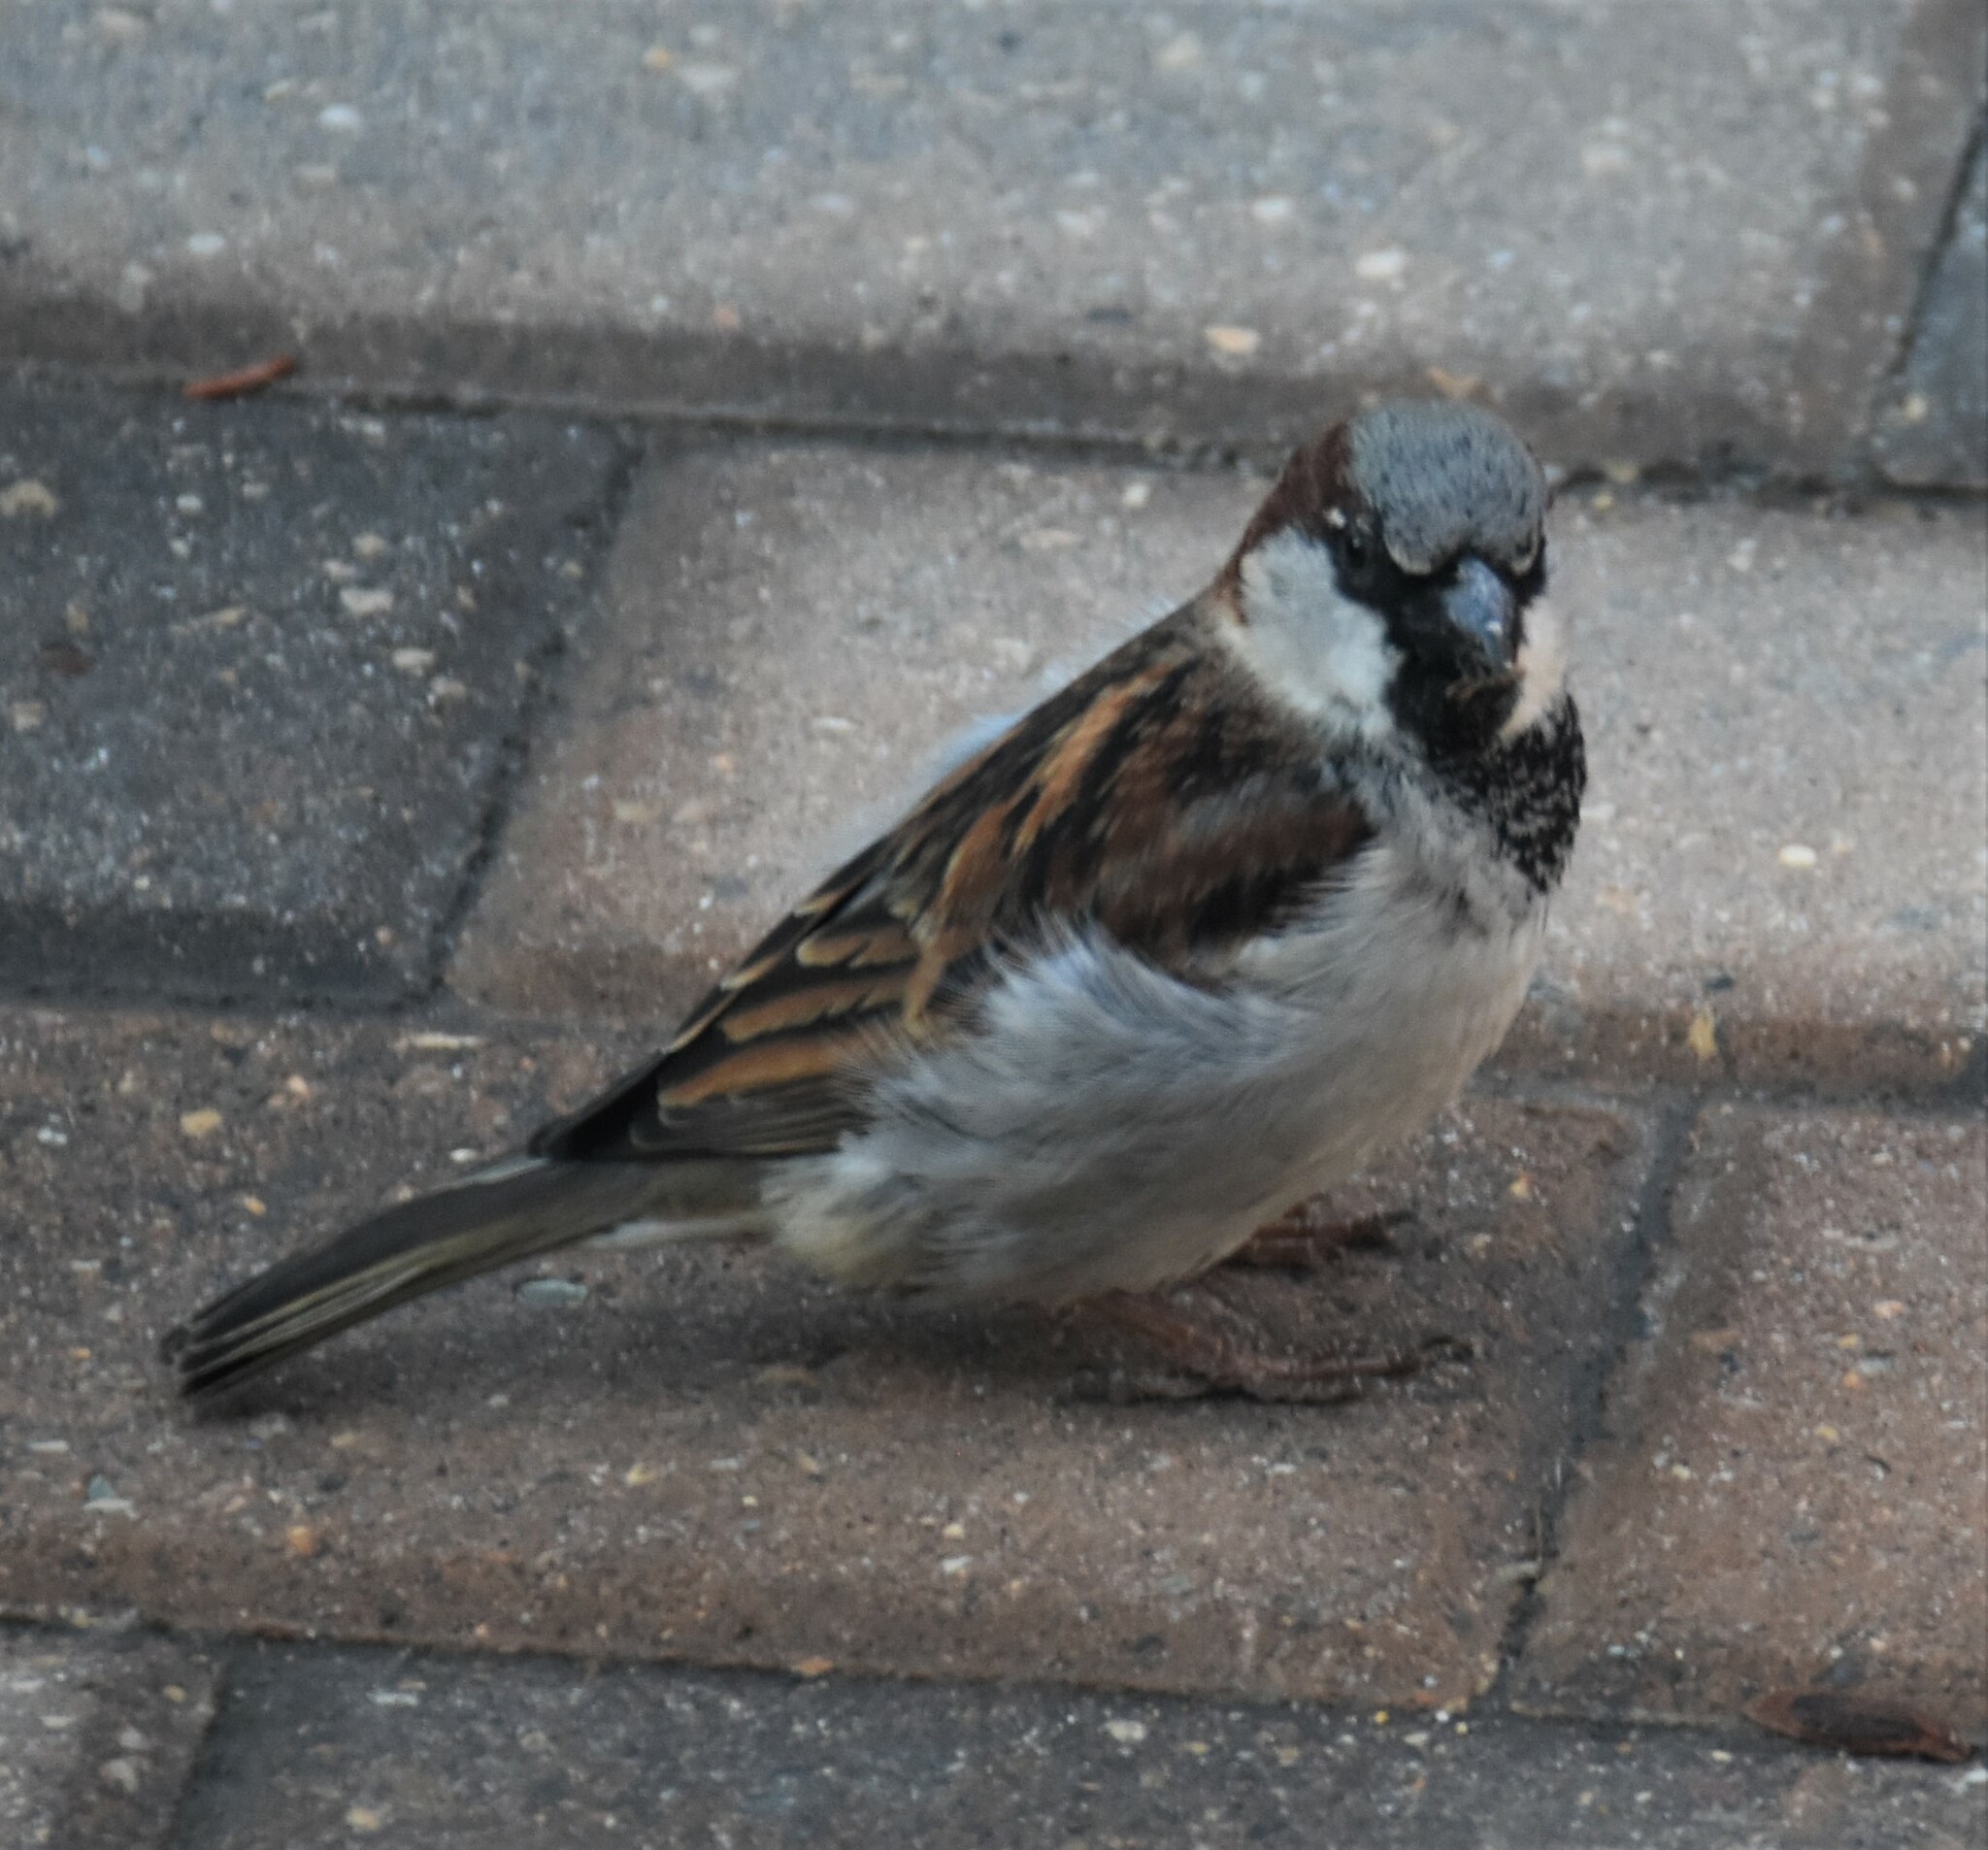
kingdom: Animalia
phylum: Chordata
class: Aves
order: Passeriformes
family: Passeridae
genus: Passer
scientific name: Passer domesticus
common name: House sparrow
